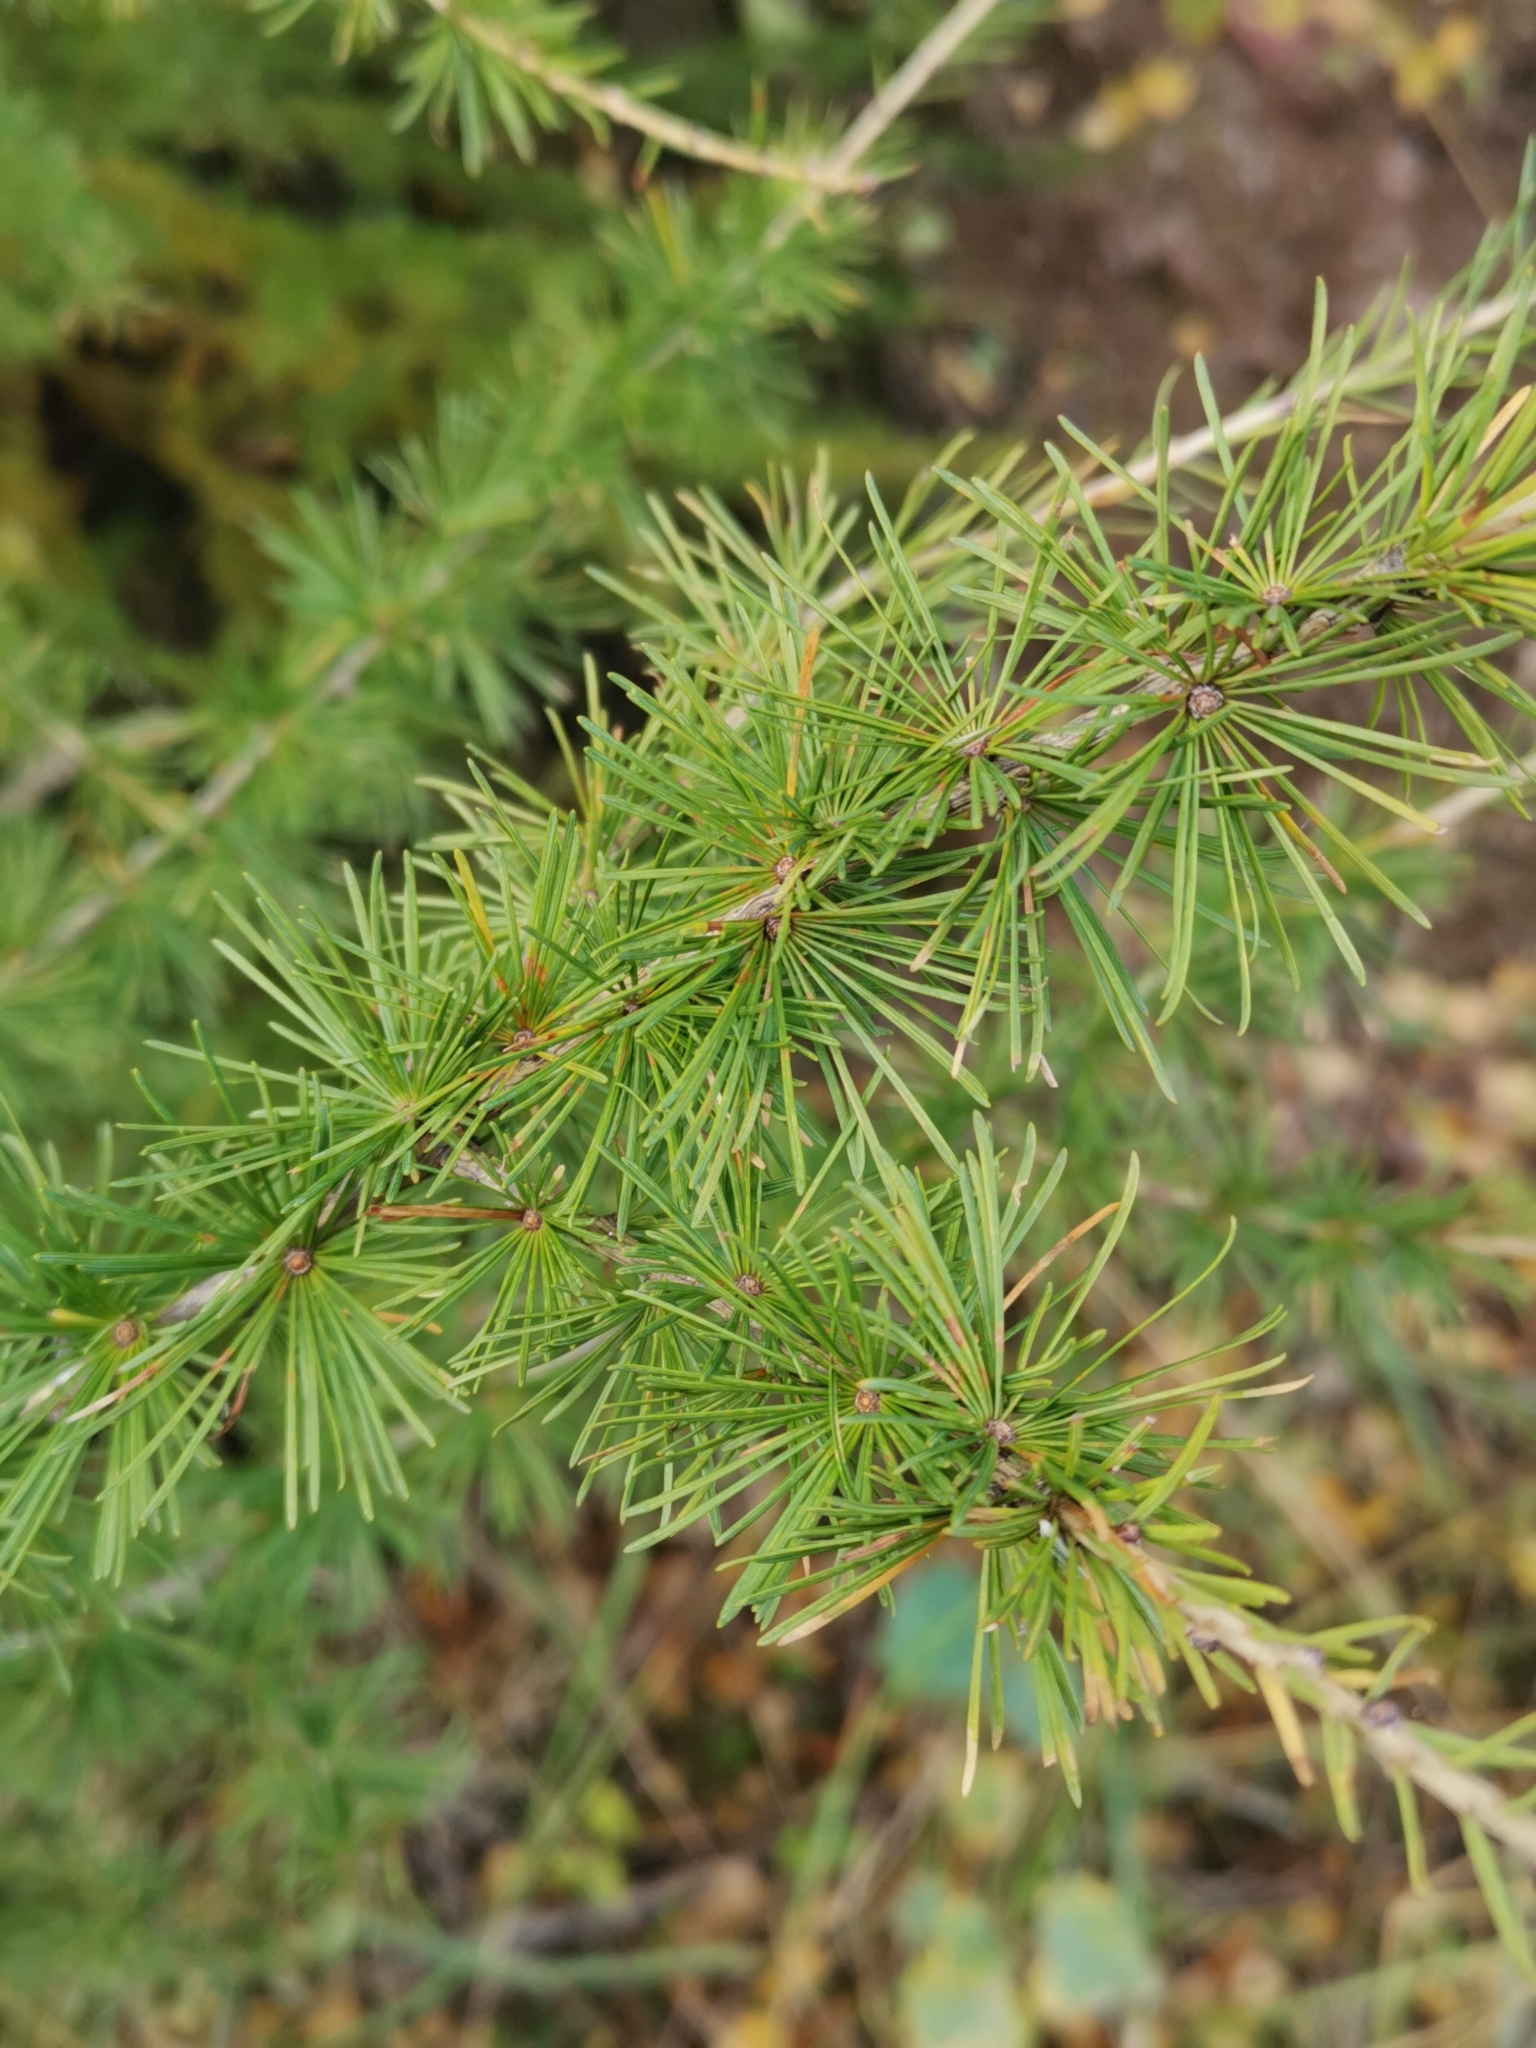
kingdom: Plantae
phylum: Tracheophyta
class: Pinopsida
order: Pinales
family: Pinaceae
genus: Larix
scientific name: Larix decidua
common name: European larch
